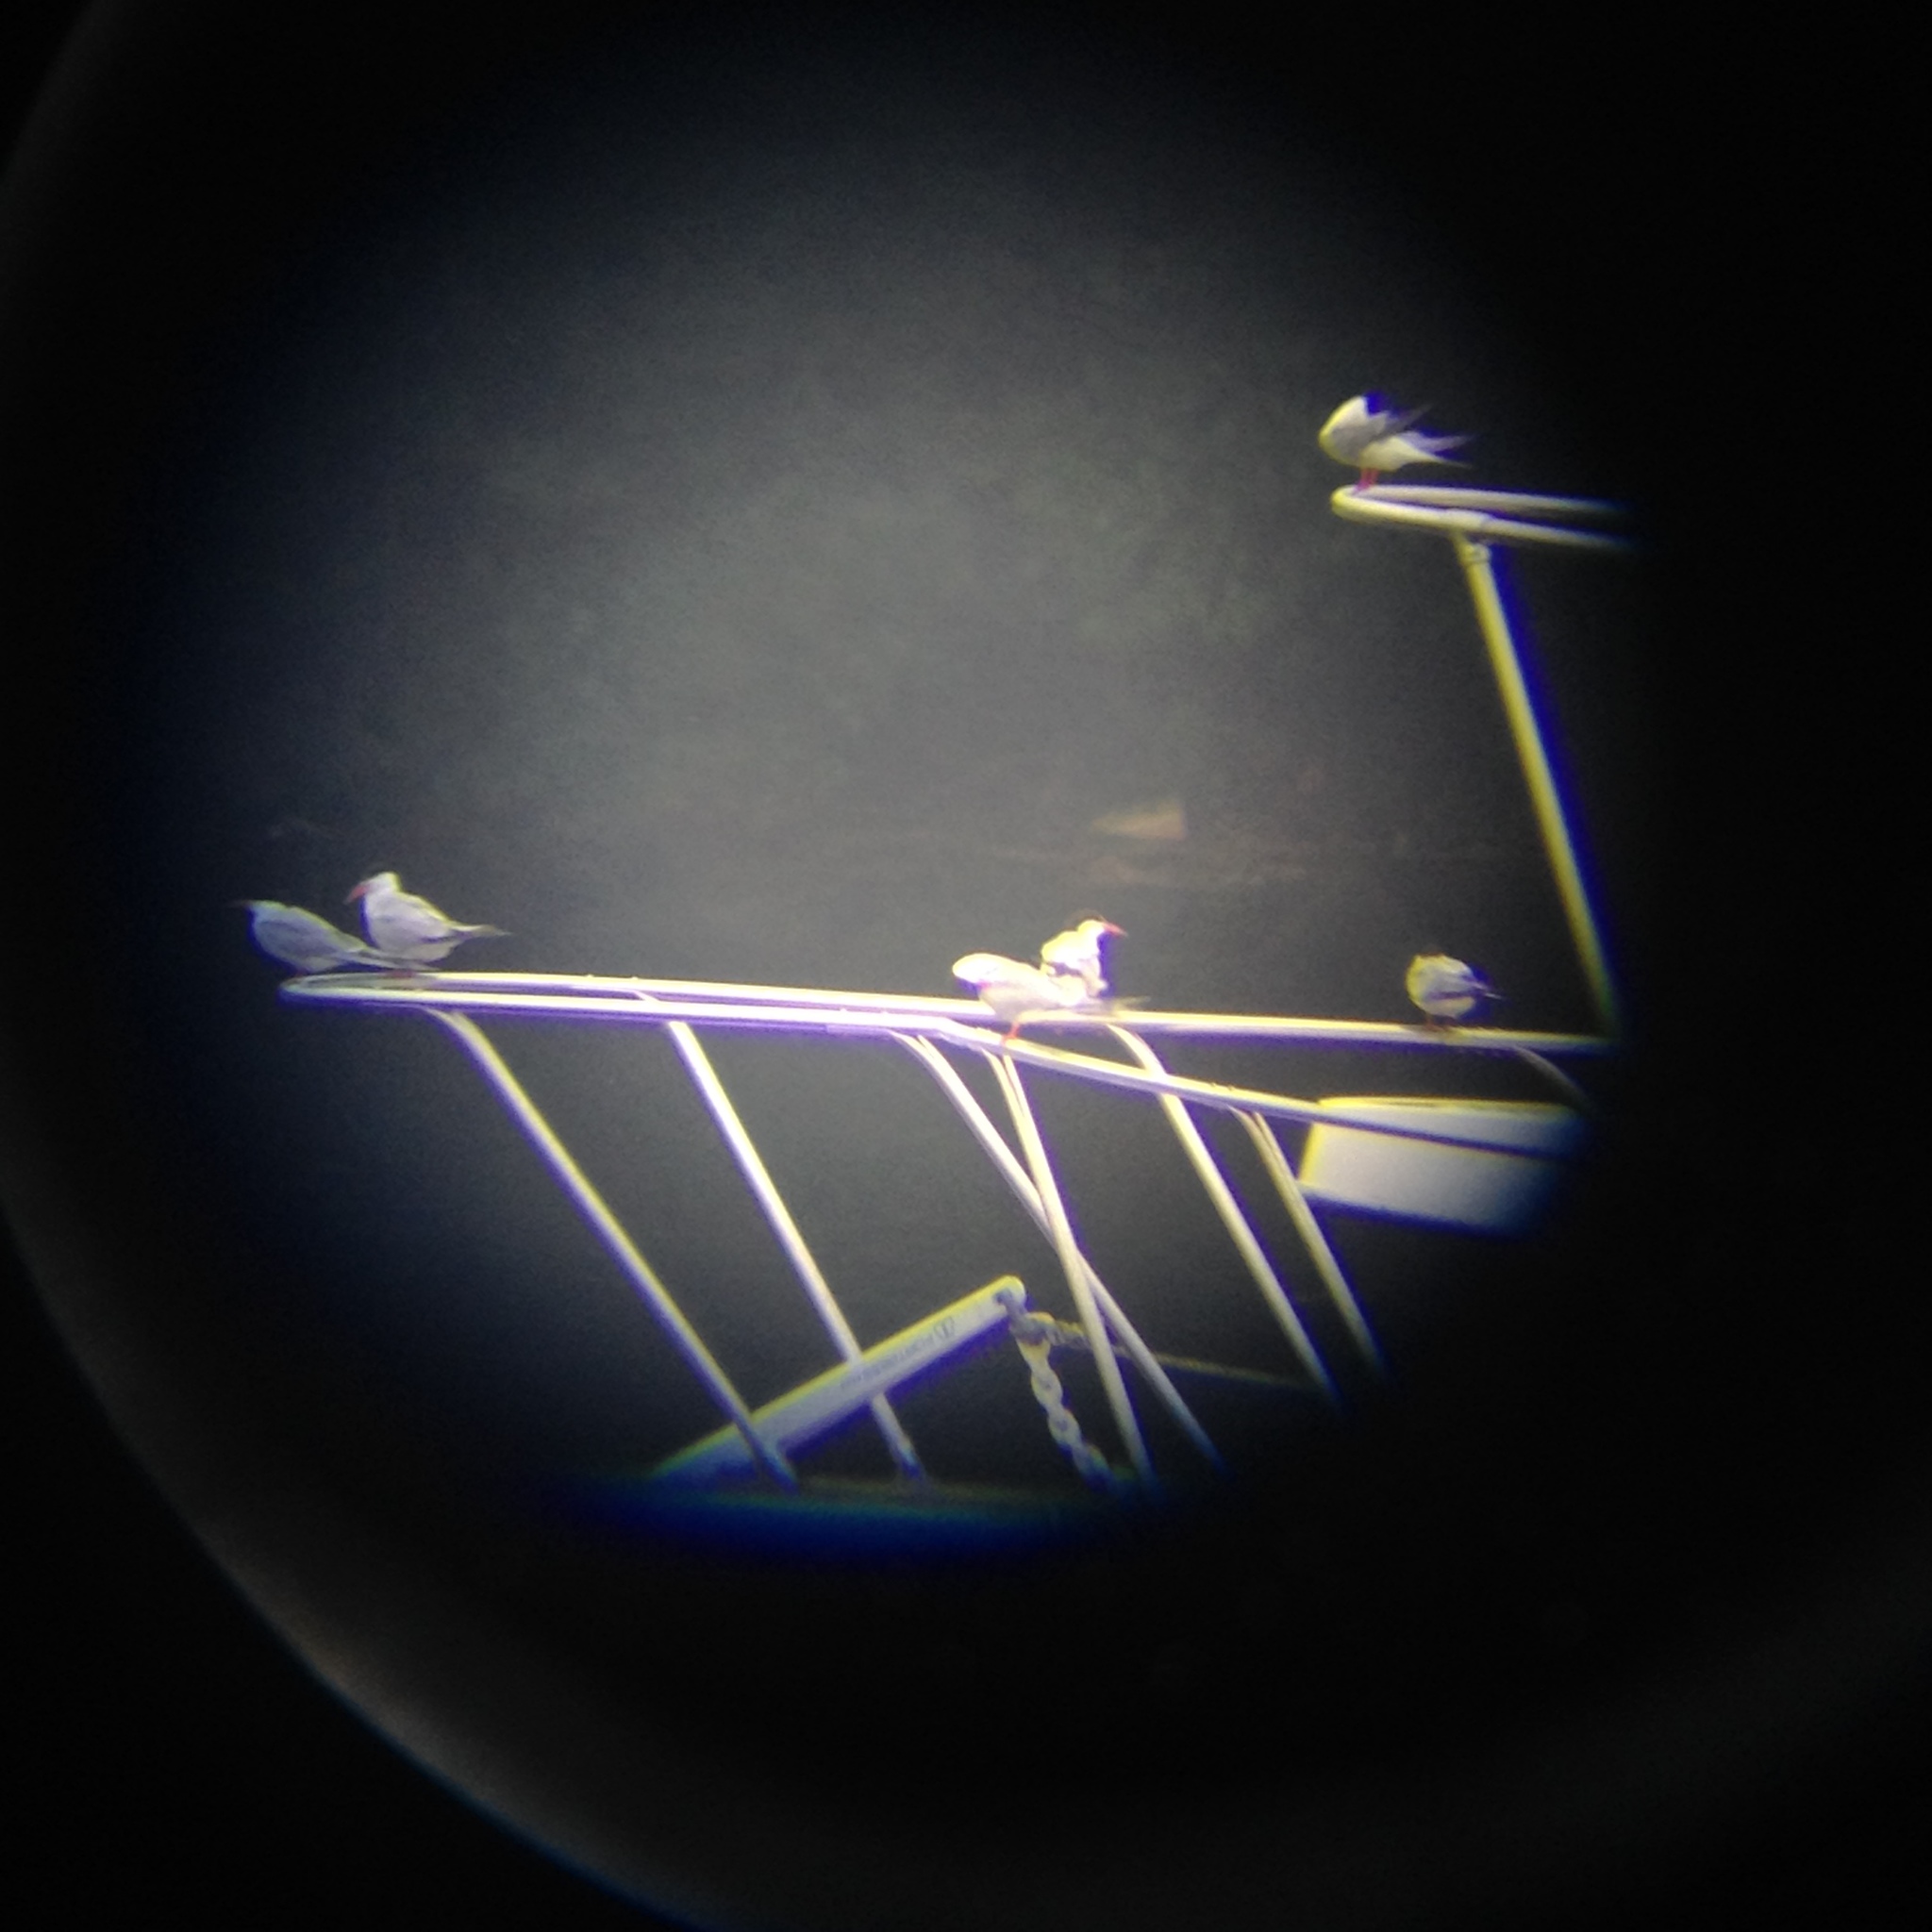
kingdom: Animalia
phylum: Chordata
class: Aves
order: Charadriiformes
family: Laridae
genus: Sterna
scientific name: Sterna hirundo
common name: Common tern
